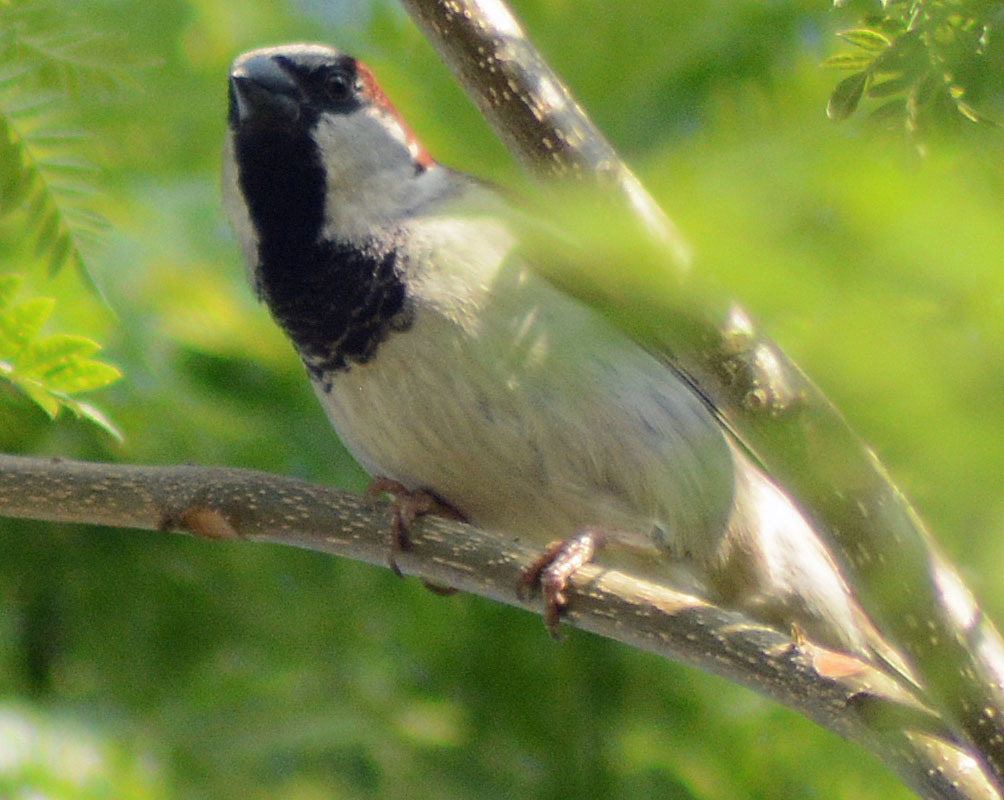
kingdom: Animalia
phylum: Chordata
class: Aves
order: Passeriformes
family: Passeridae
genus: Passer
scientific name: Passer domesticus
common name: House sparrow
